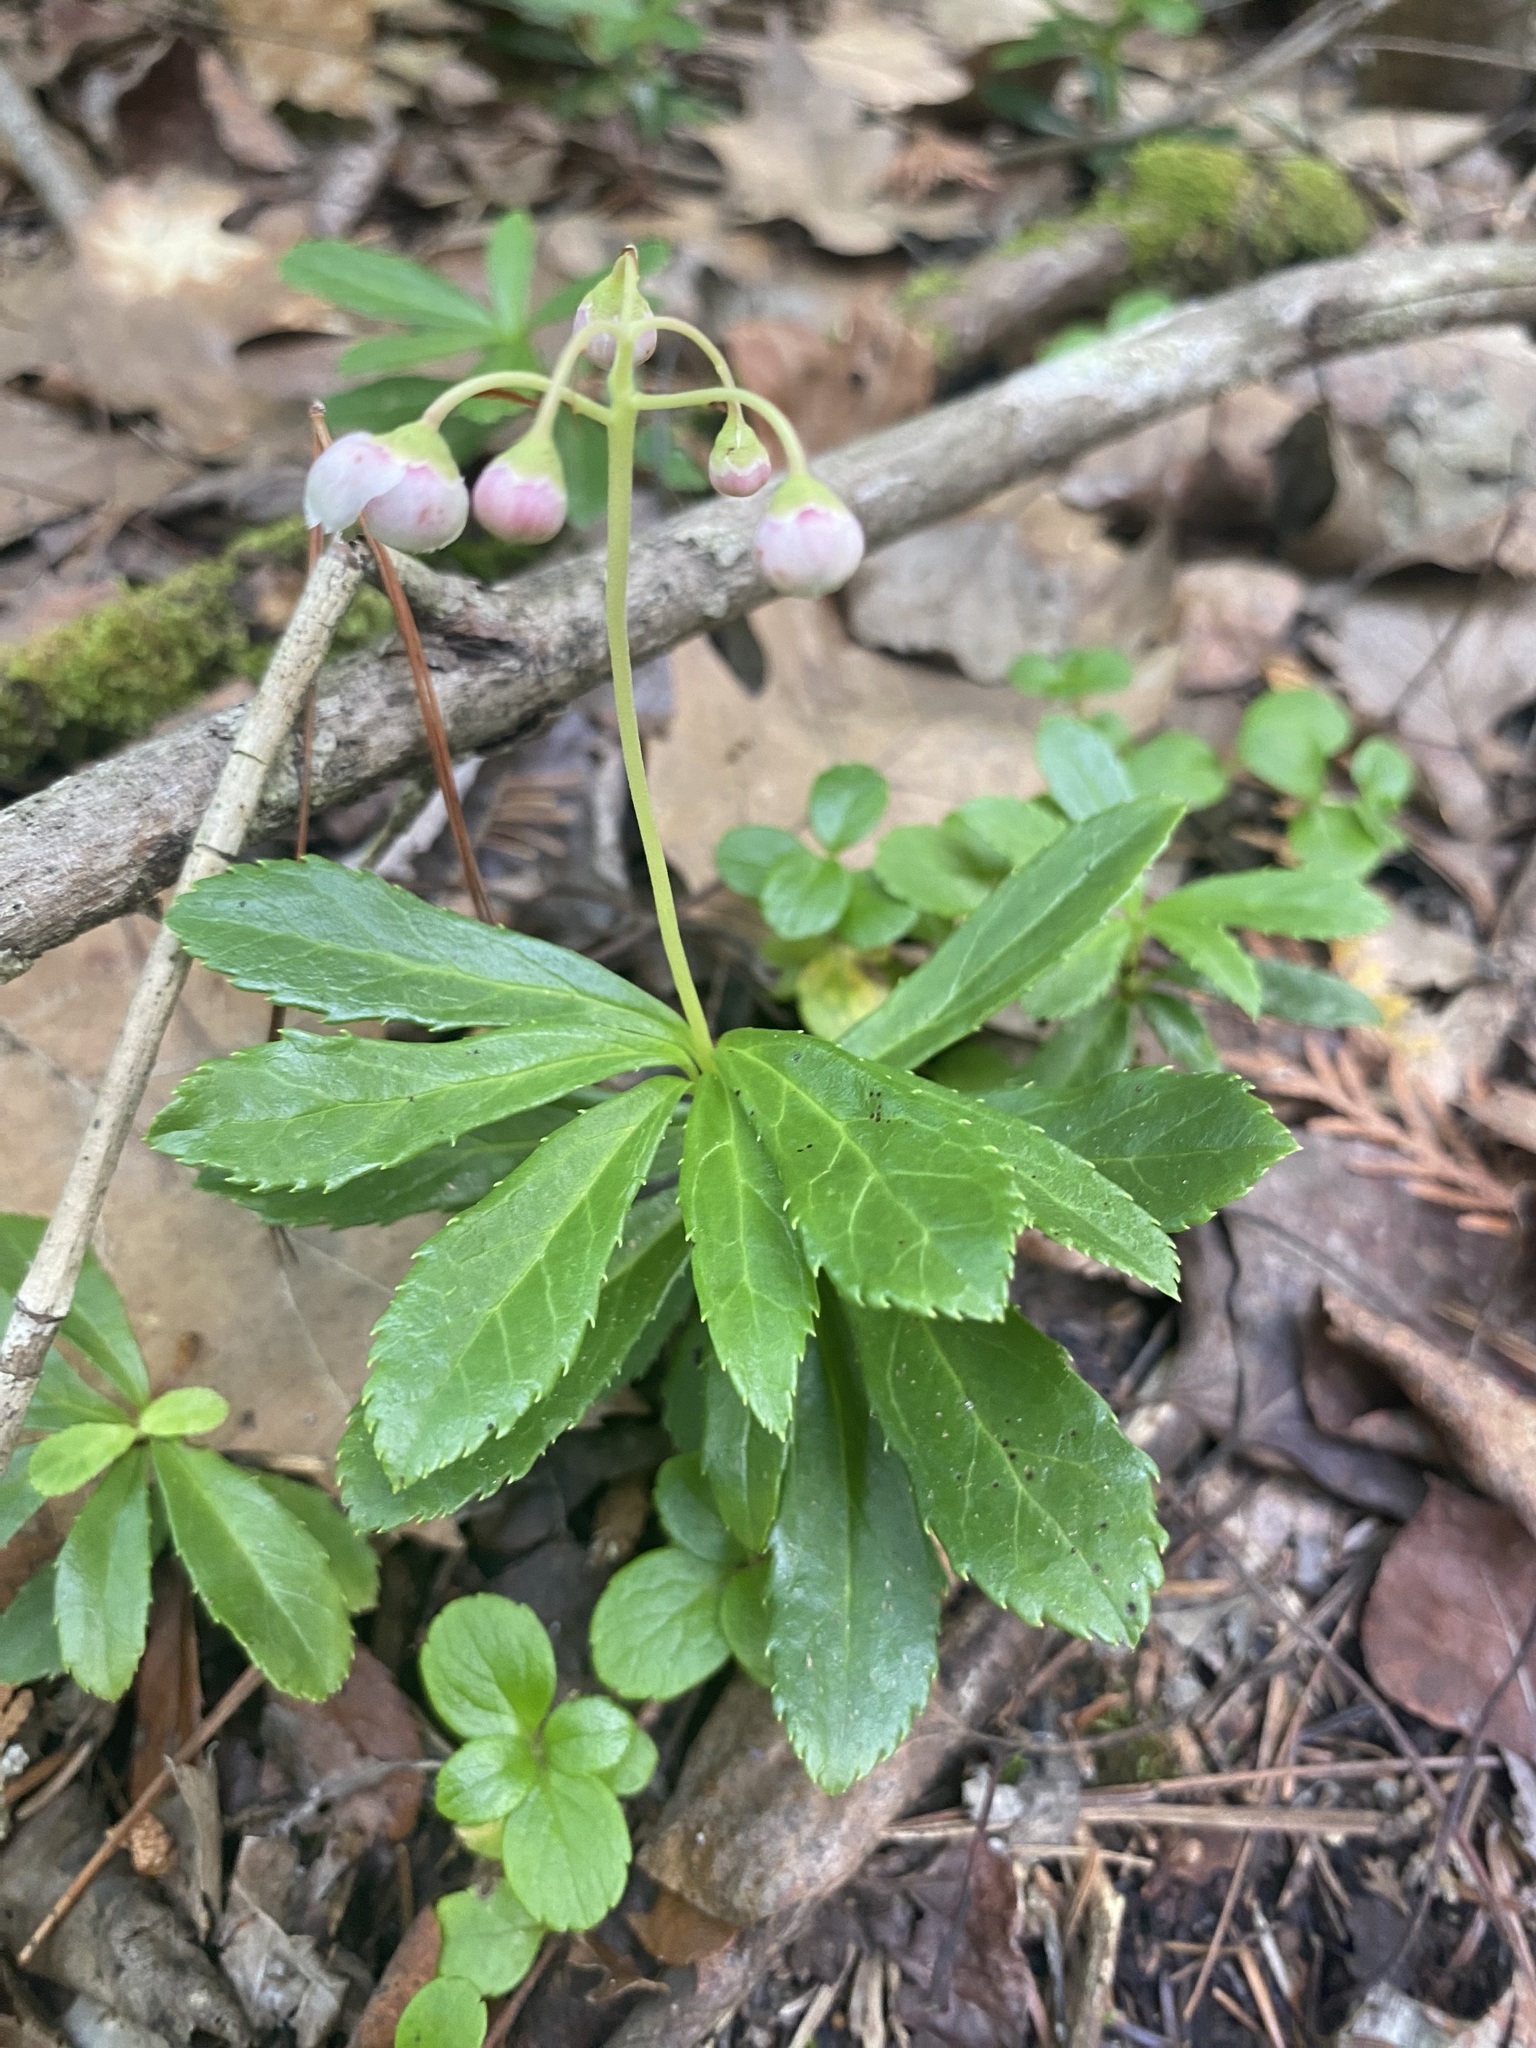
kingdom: Plantae
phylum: Tracheophyta
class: Magnoliopsida
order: Ericales
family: Ericaceae
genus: Chimaphila
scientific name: Chimaphila umbellata
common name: Pipsissewa
